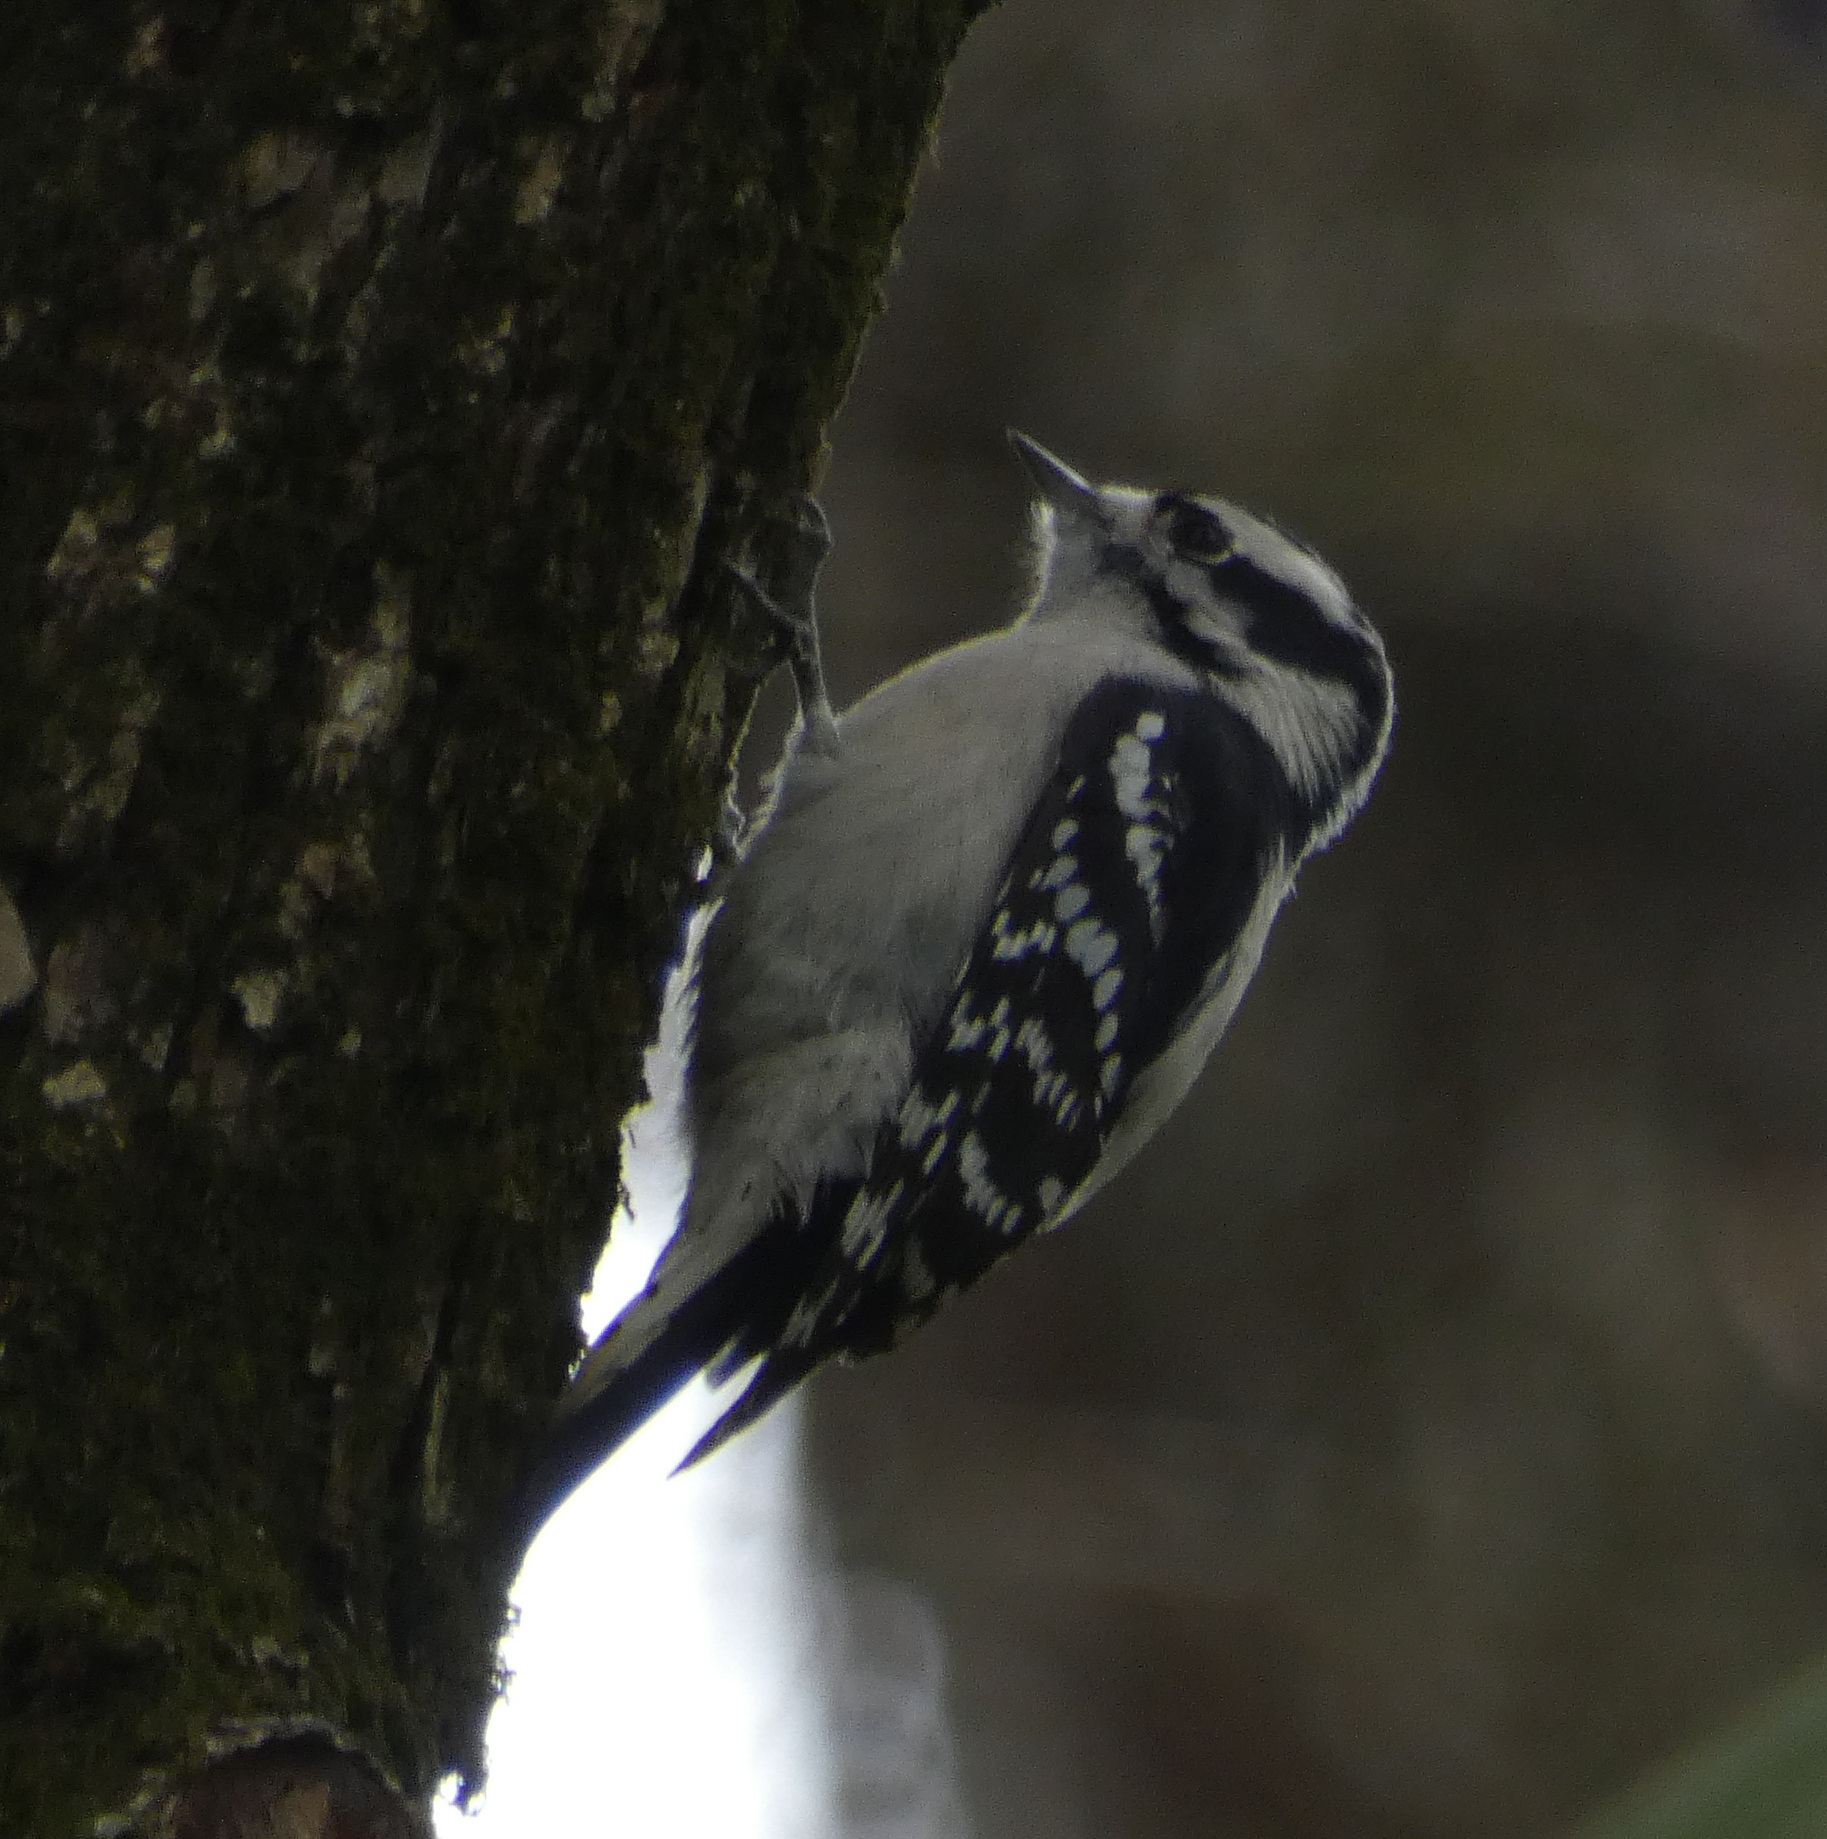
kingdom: Animalia
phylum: Chordata
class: Aves
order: Piciformes
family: Picidae
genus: Dryobates
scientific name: Dryobates pubescens
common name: Downy woodpecker
